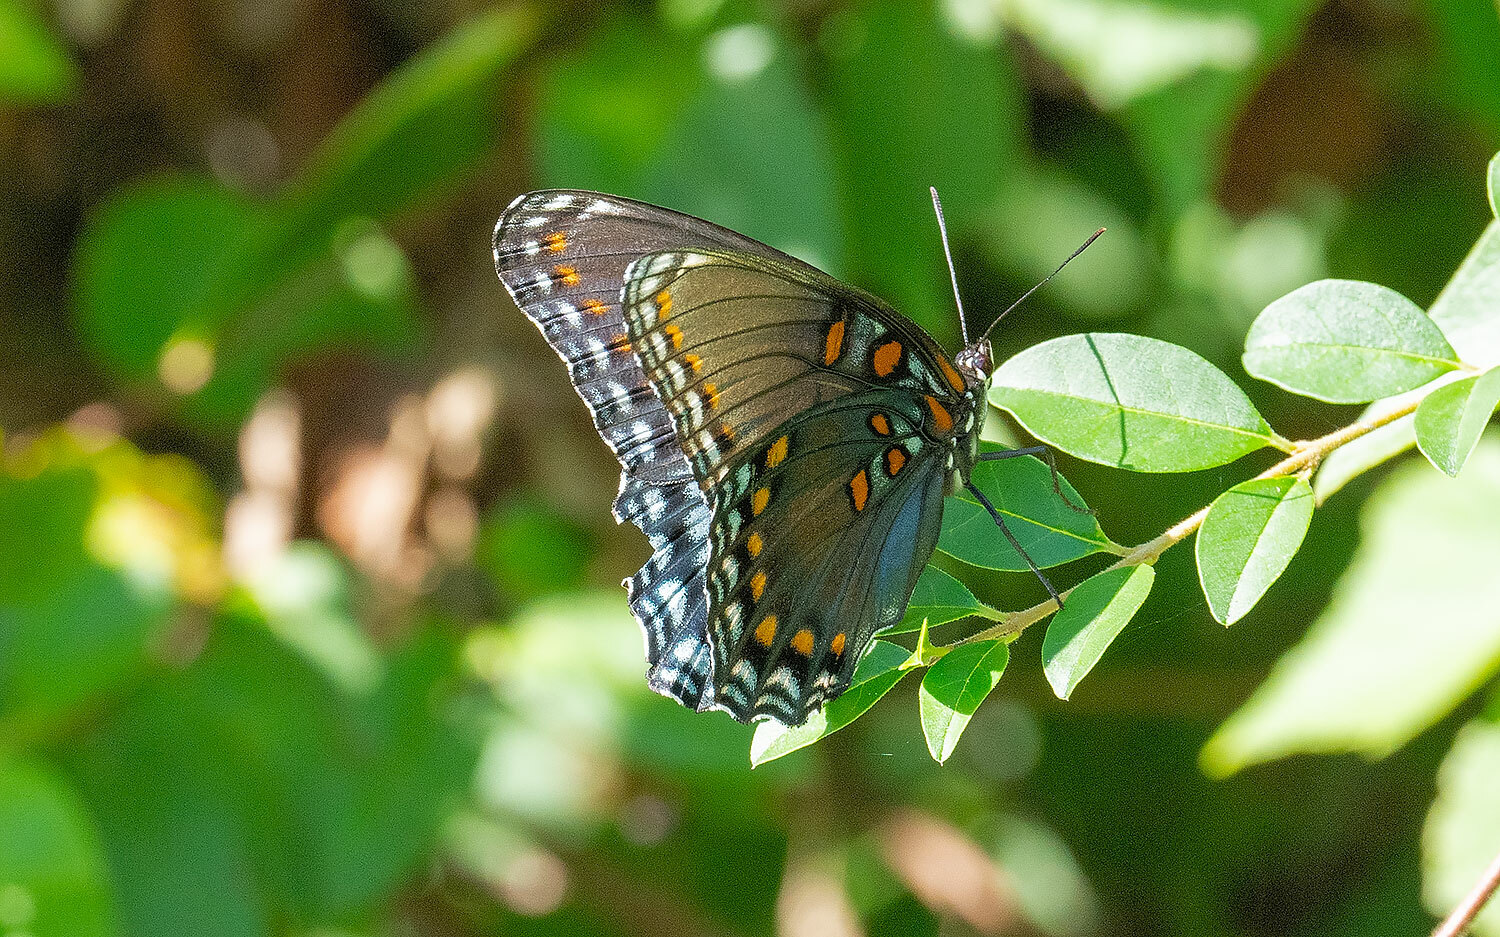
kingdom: Animalia
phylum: Arthropoda
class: Insecta
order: Lepidoptera
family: Nymphalidae
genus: Limenitis
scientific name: Limenitis astyanax
